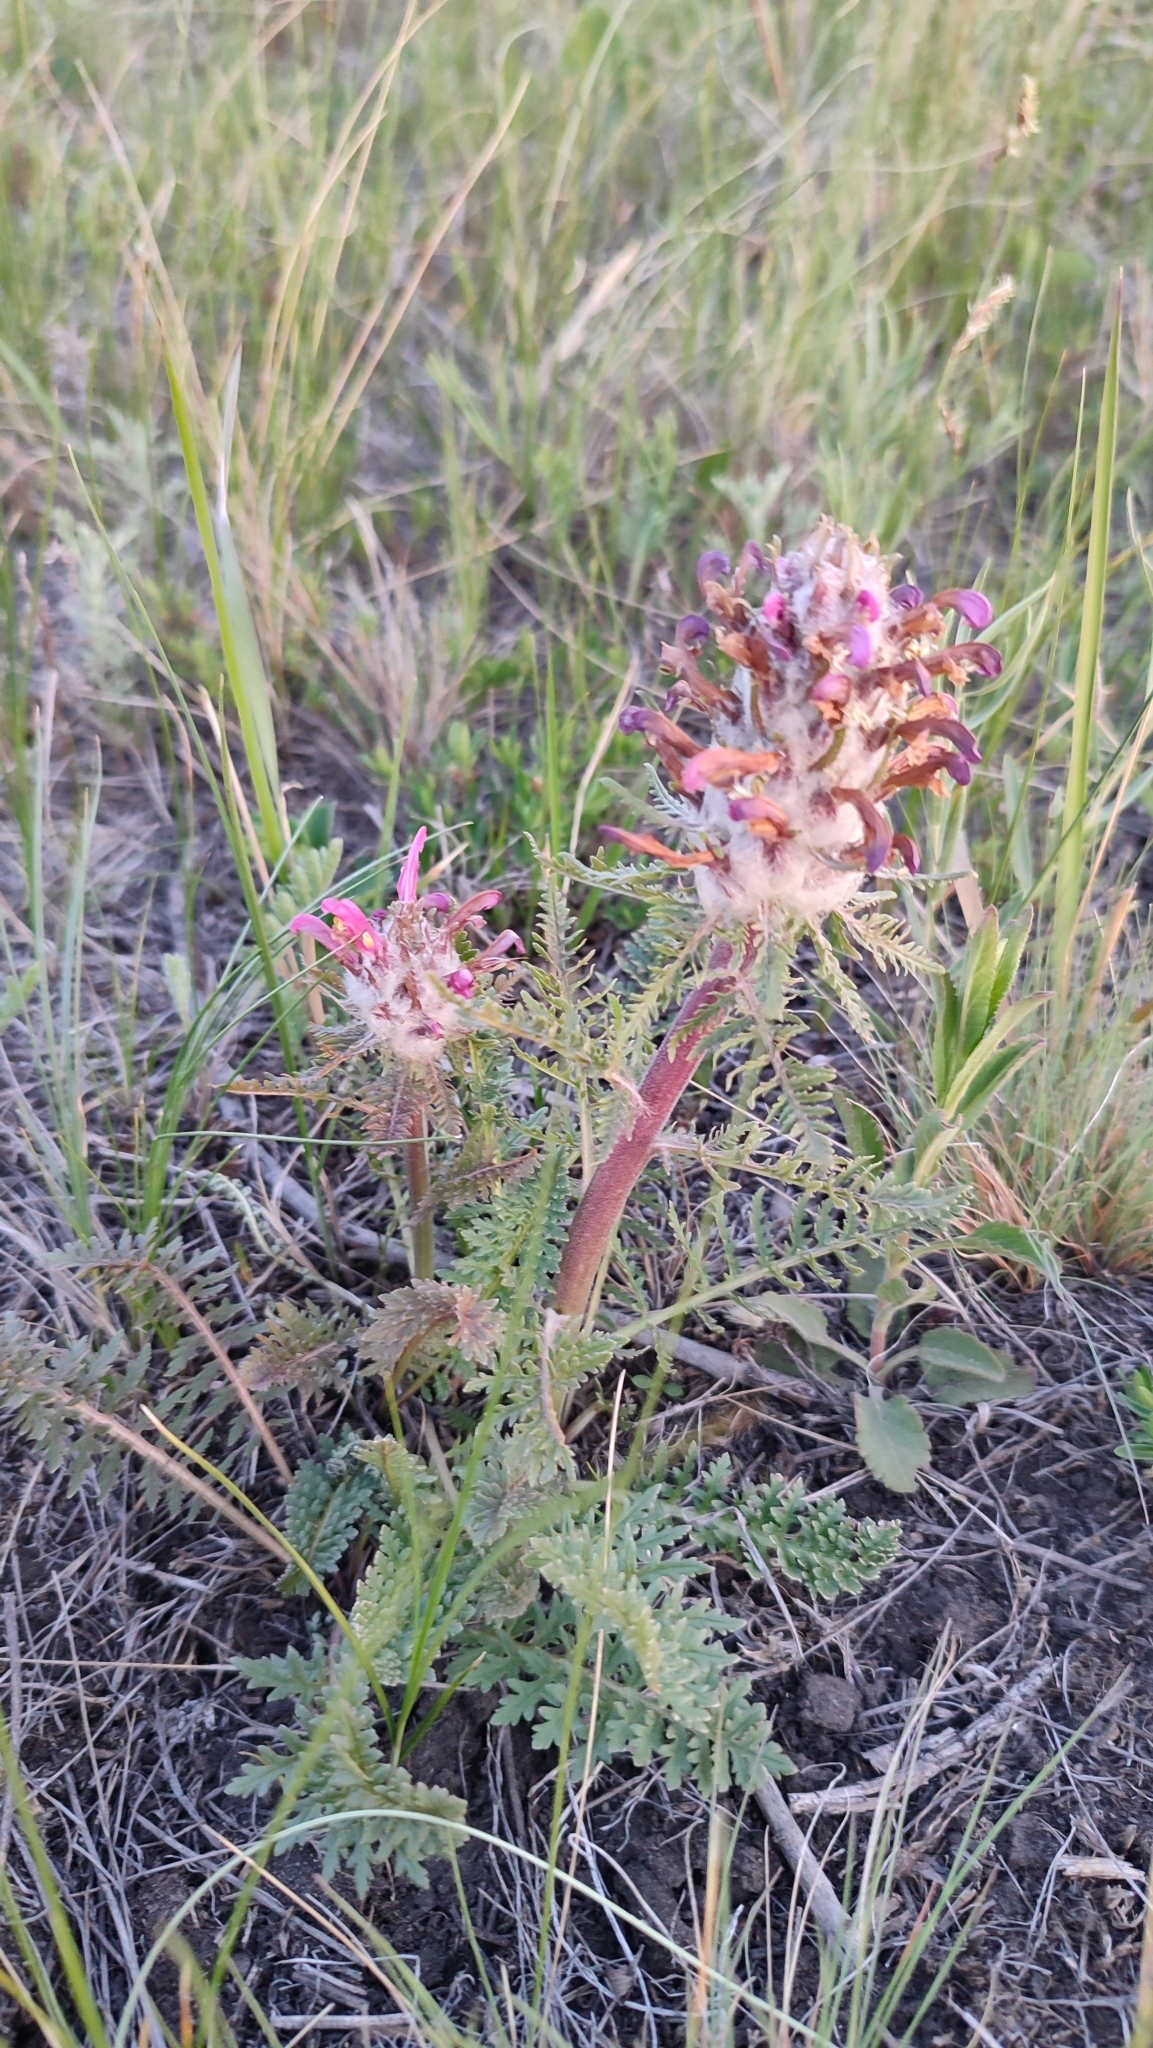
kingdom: Plantae
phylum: Tracheophyta
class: Magnoliopsida
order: Lamiales
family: Orobanchaceae
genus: Pedicularis
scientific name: Pedicularis dasystachys
